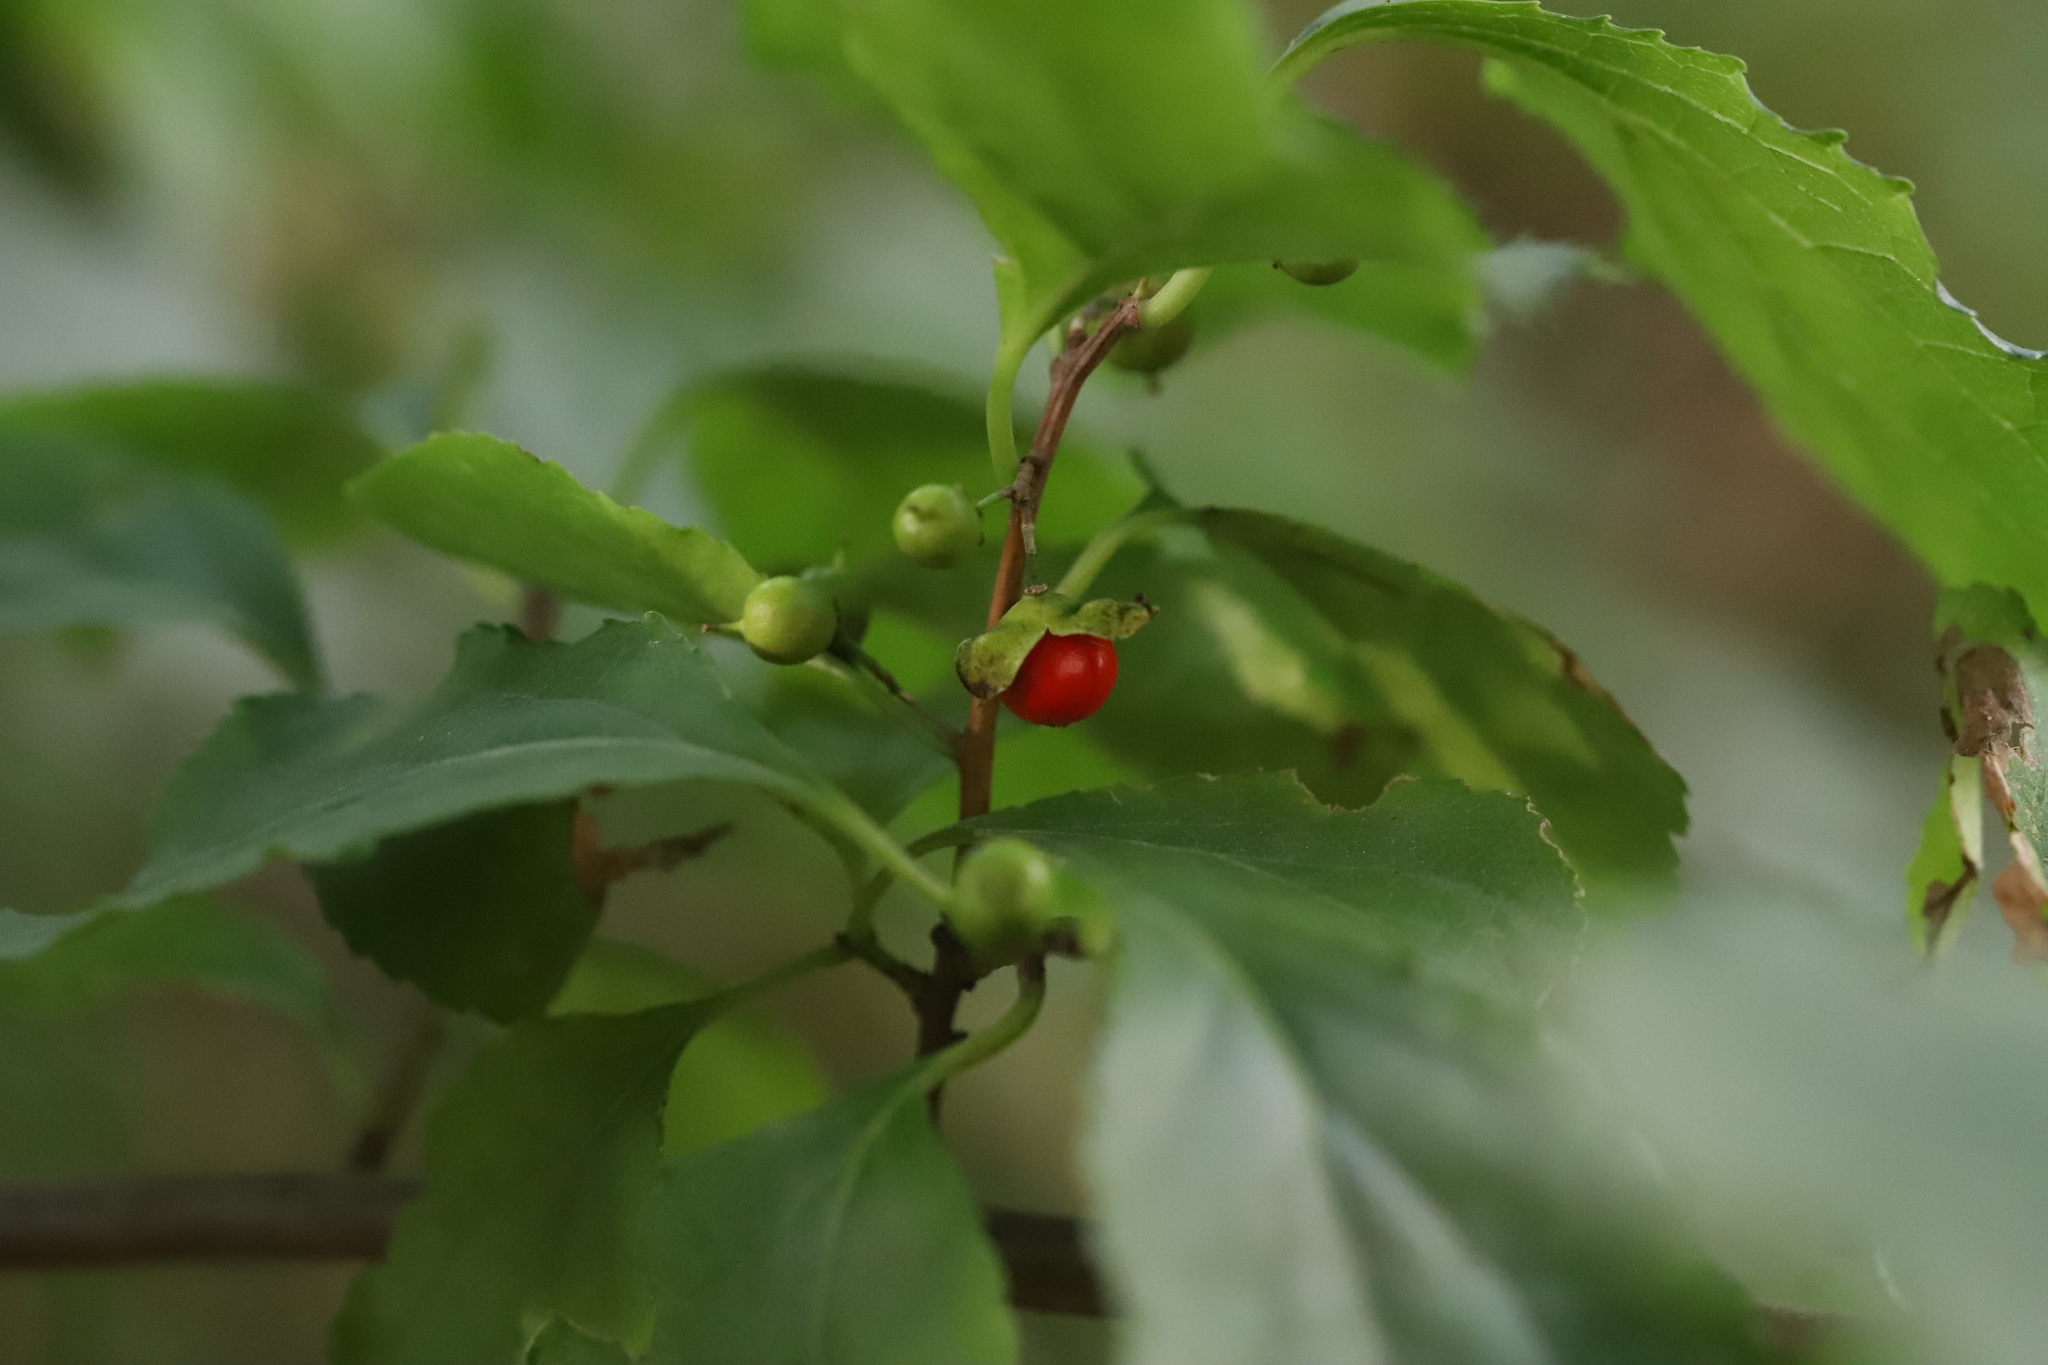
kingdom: Plantae
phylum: Tracheophyta
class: Magnoliopsida
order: Celastrales
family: Celastraceae
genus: Celastrus
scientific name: Celastrus orbiculatus
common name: Oriental bittersweet
